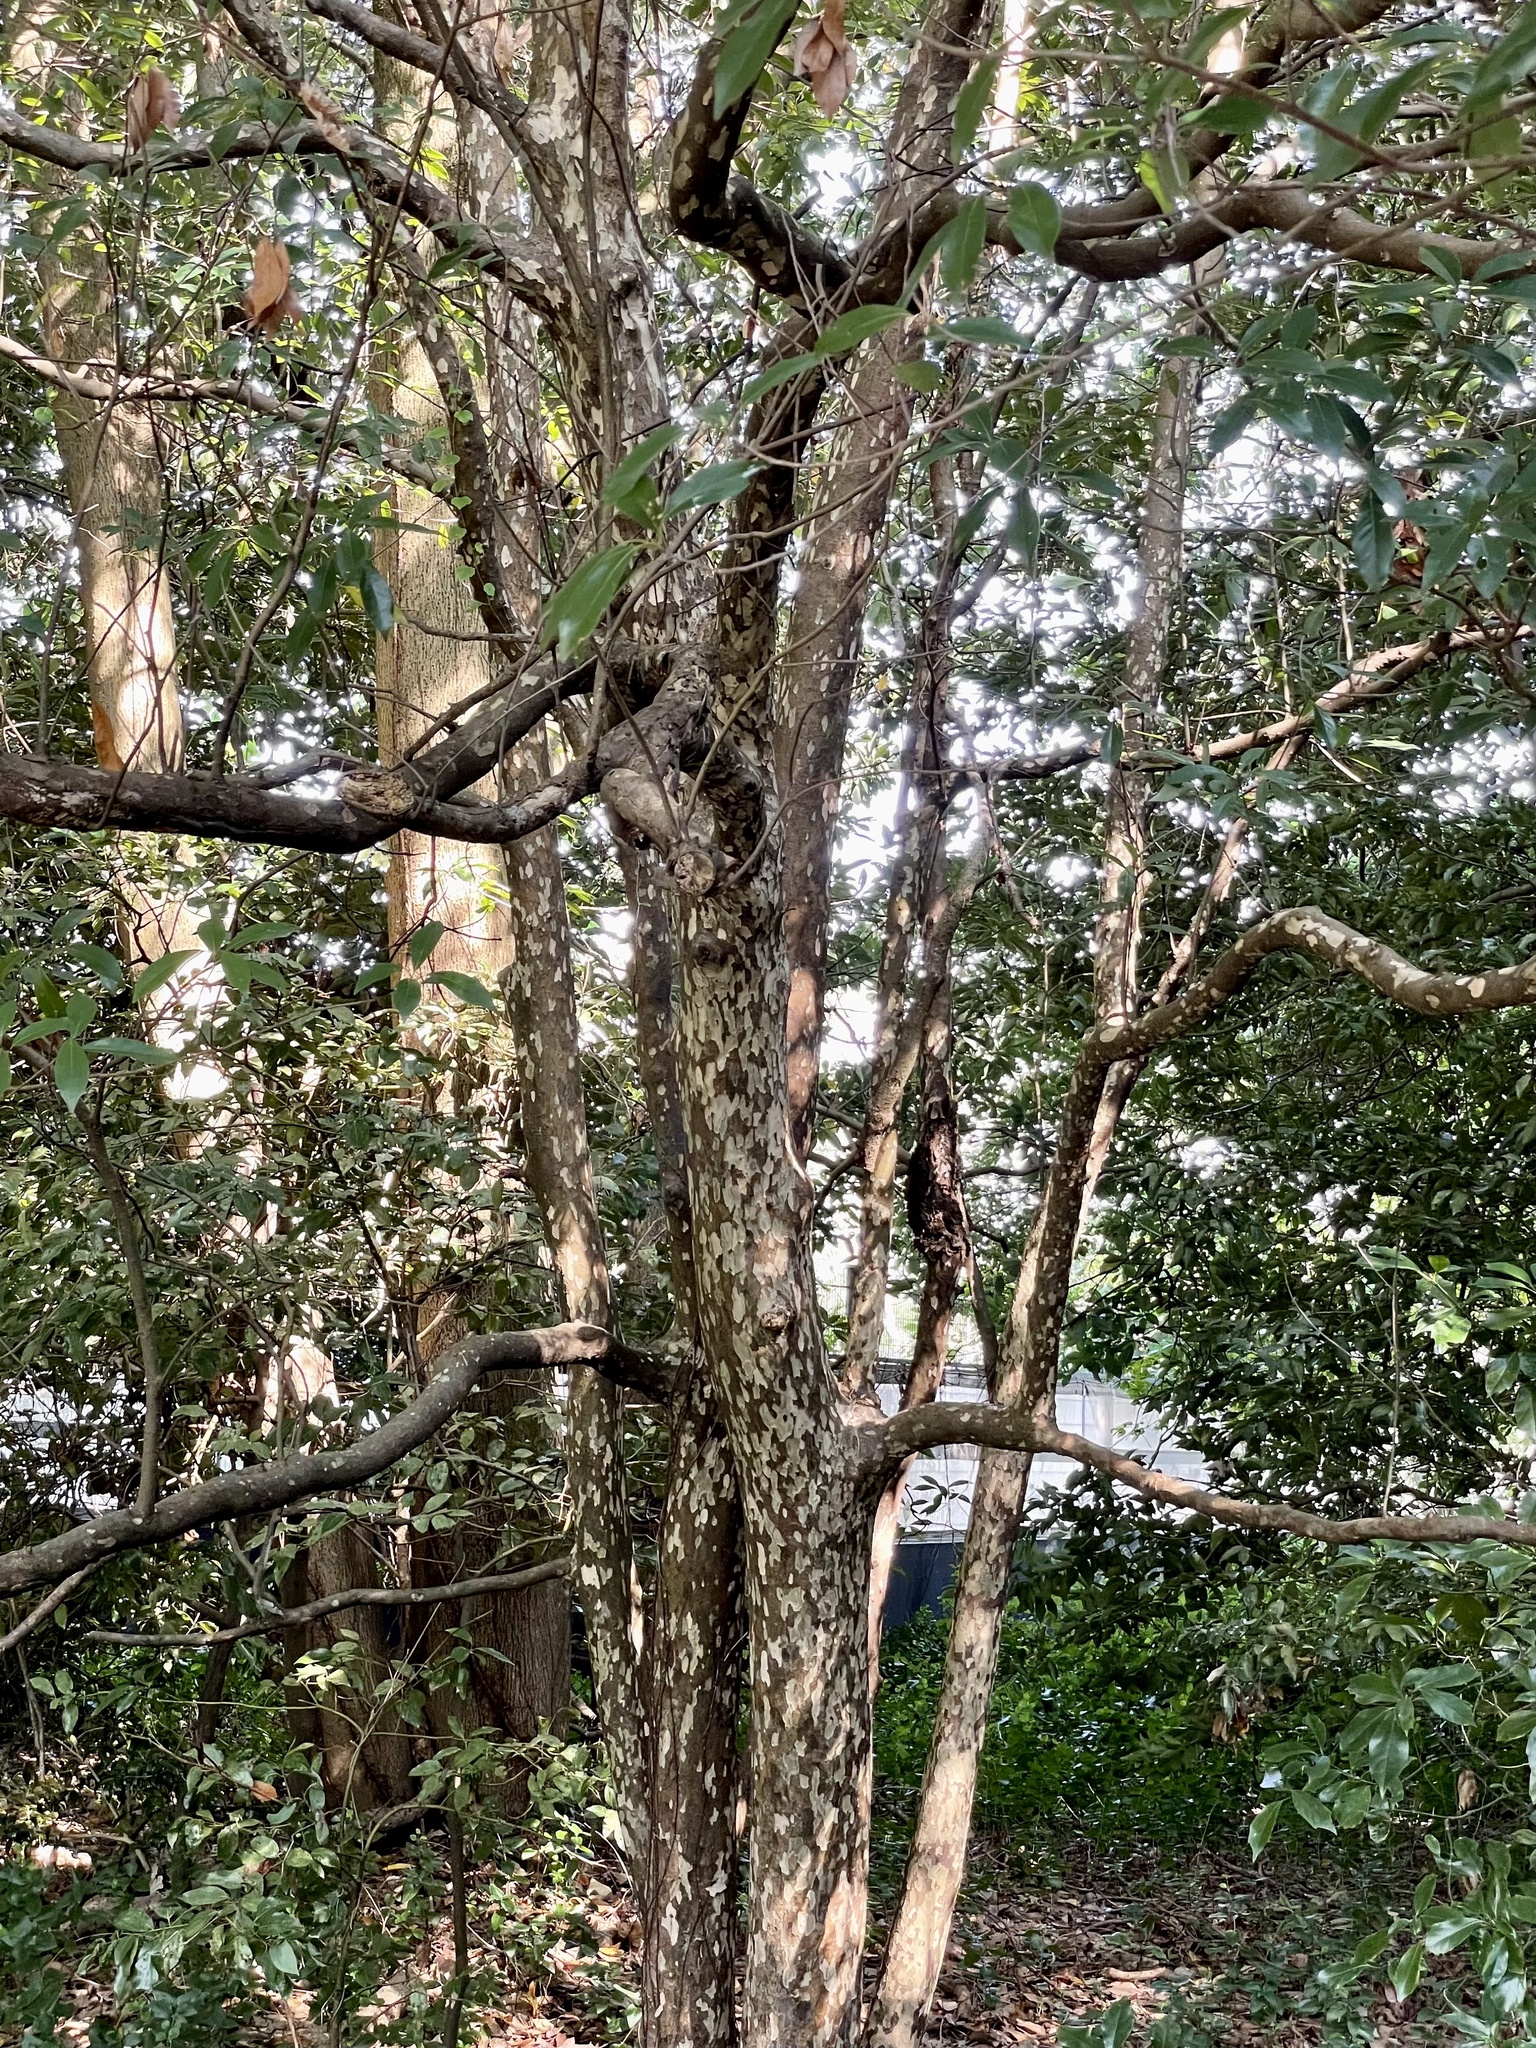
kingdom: Plantae
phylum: Tracheophyta
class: Magnoliopsida
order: Laurales
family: Lauraceae
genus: Litsea
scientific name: Litsea coreana
